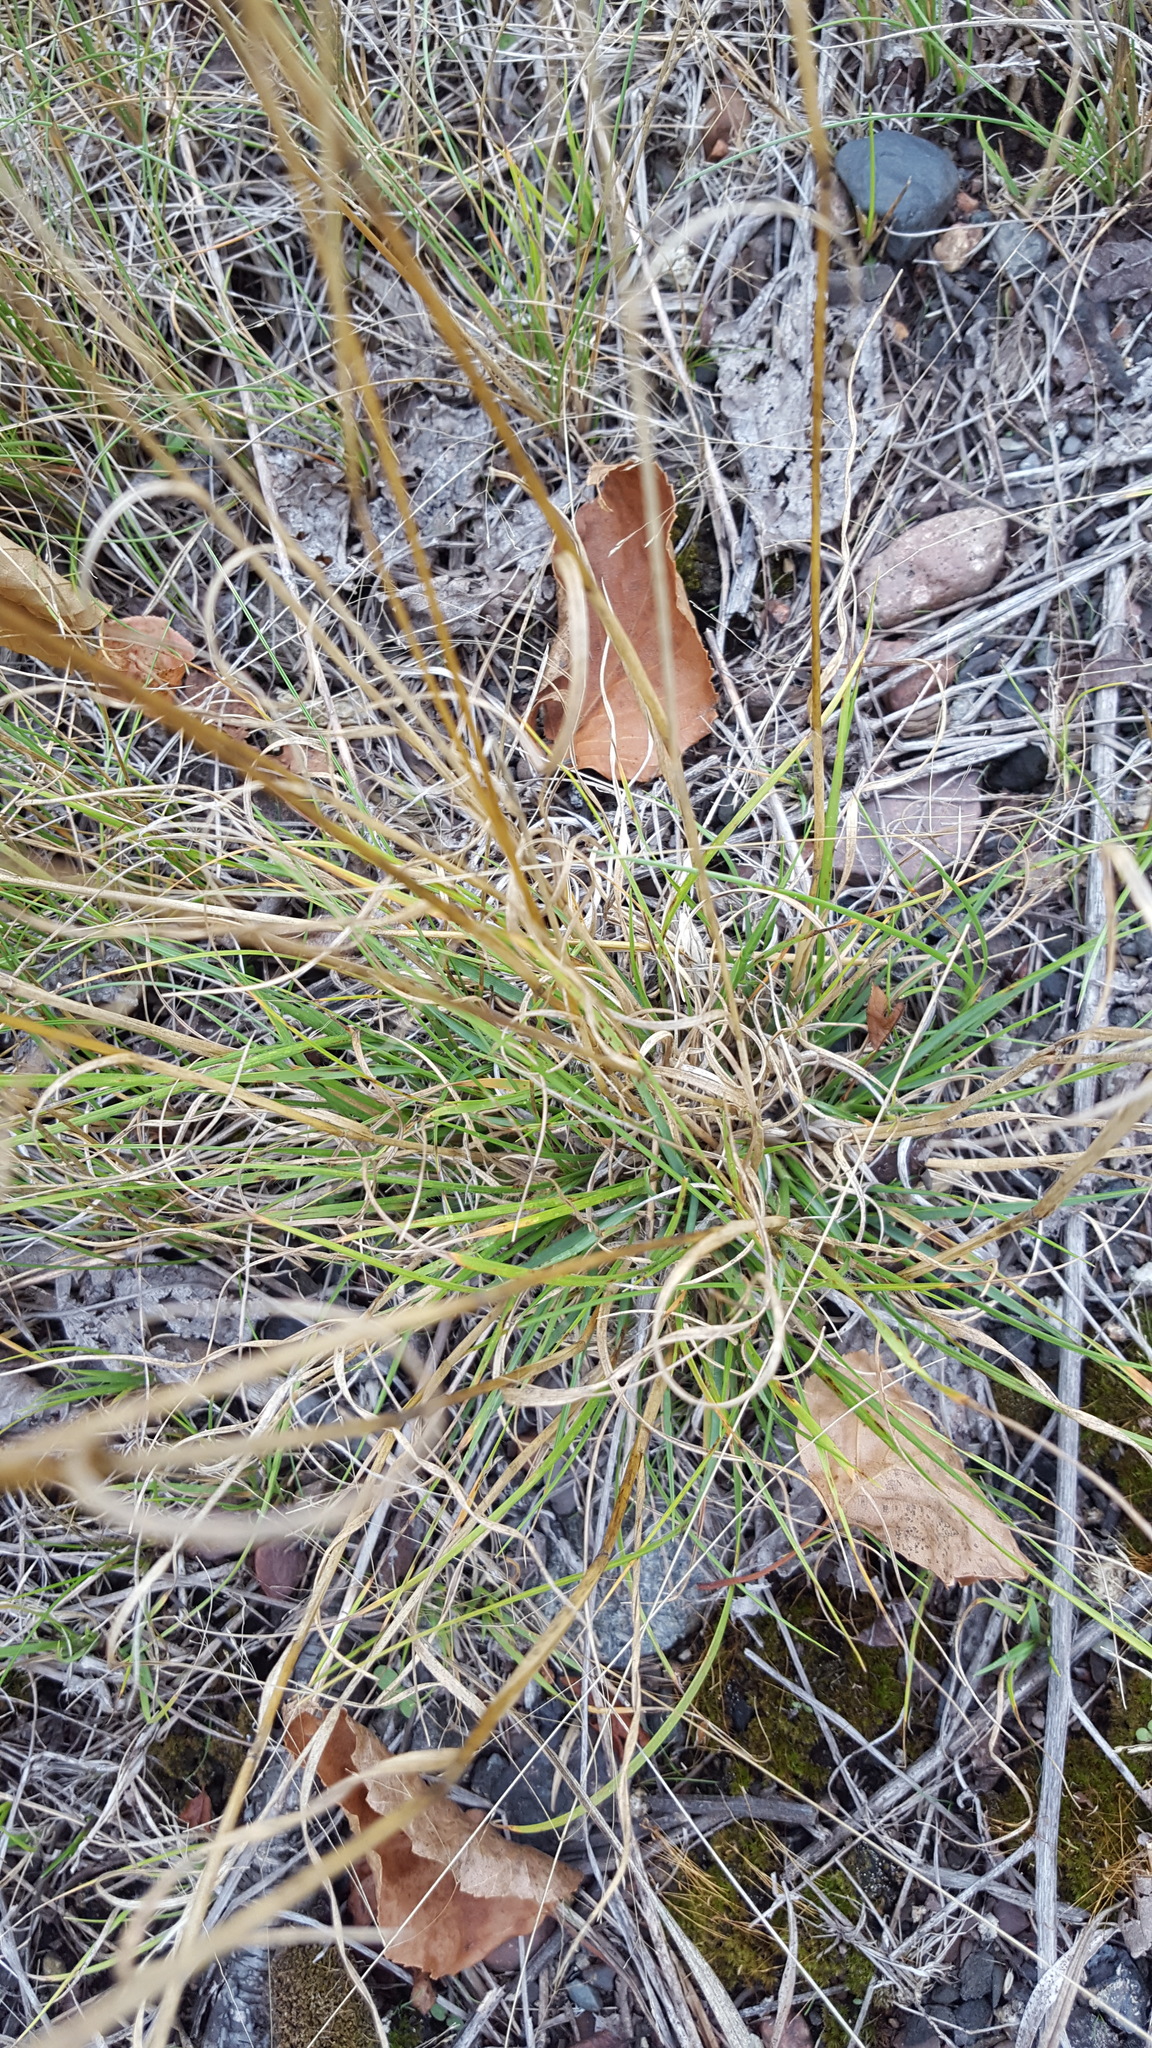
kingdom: Plantae
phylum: Tracheophyta
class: Liliopsida
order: Poales
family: Poaceae
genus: Danthonia
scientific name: Danthonia spicata
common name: Common wild oatgrass
